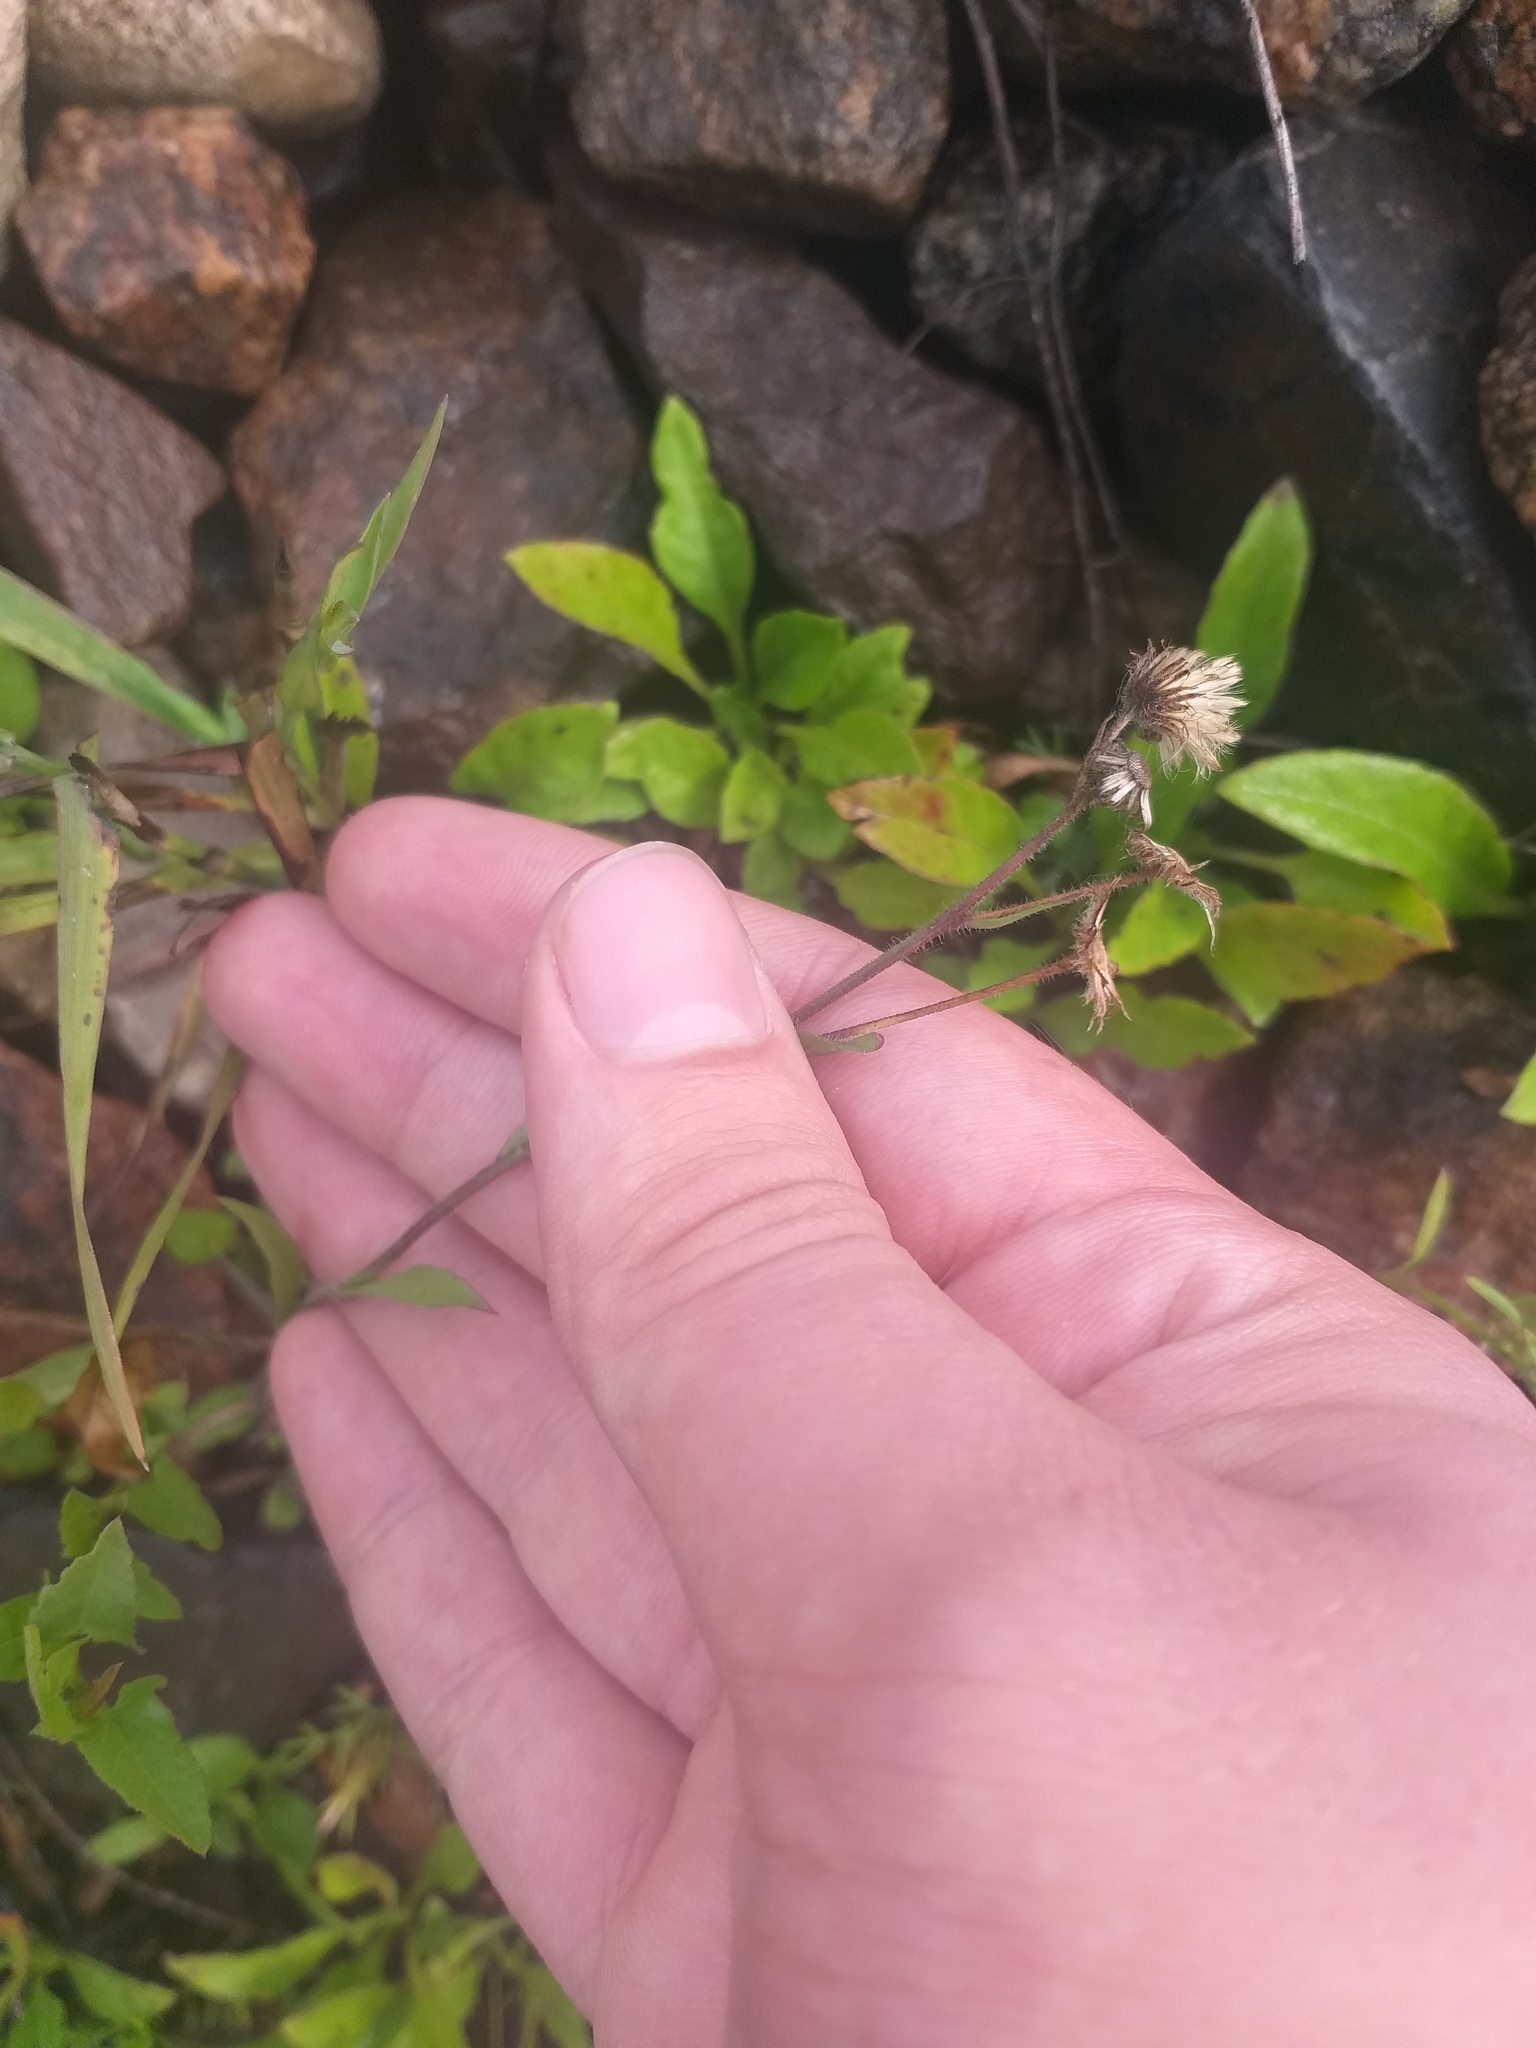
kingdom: Plantae
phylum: Tracheophyta
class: Magnoliopsida
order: Asterales
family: Asteraceae
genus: Erigeron
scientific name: Erigeron acris
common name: Blue fleabane
